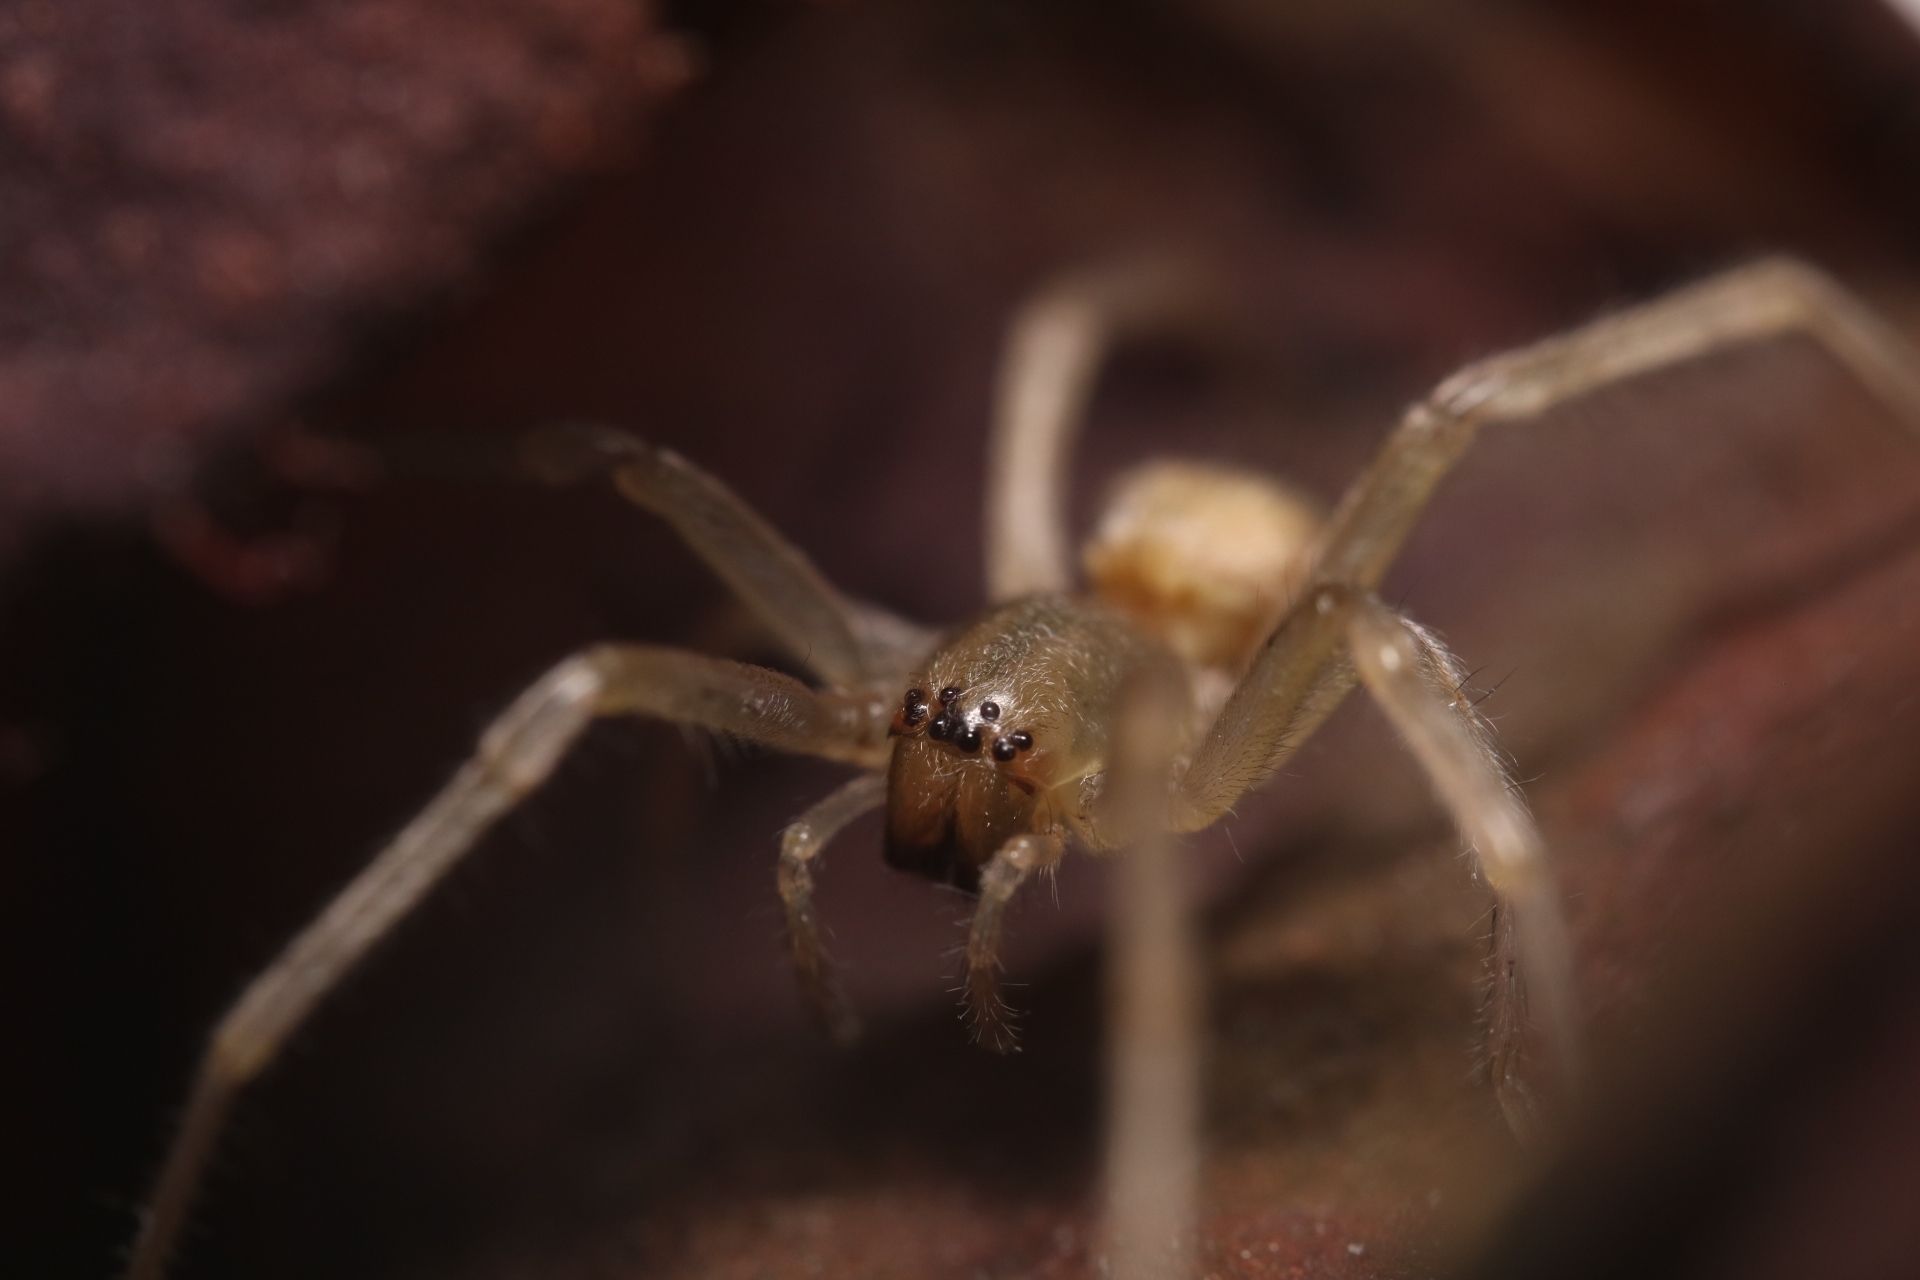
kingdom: Animalia
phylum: Arthropoda
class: Arachnida
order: Araneae
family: Cheiracanthiidae
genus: Cheiracanthium
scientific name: Cheiracanthium mildei
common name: Northern yellow sac spider
